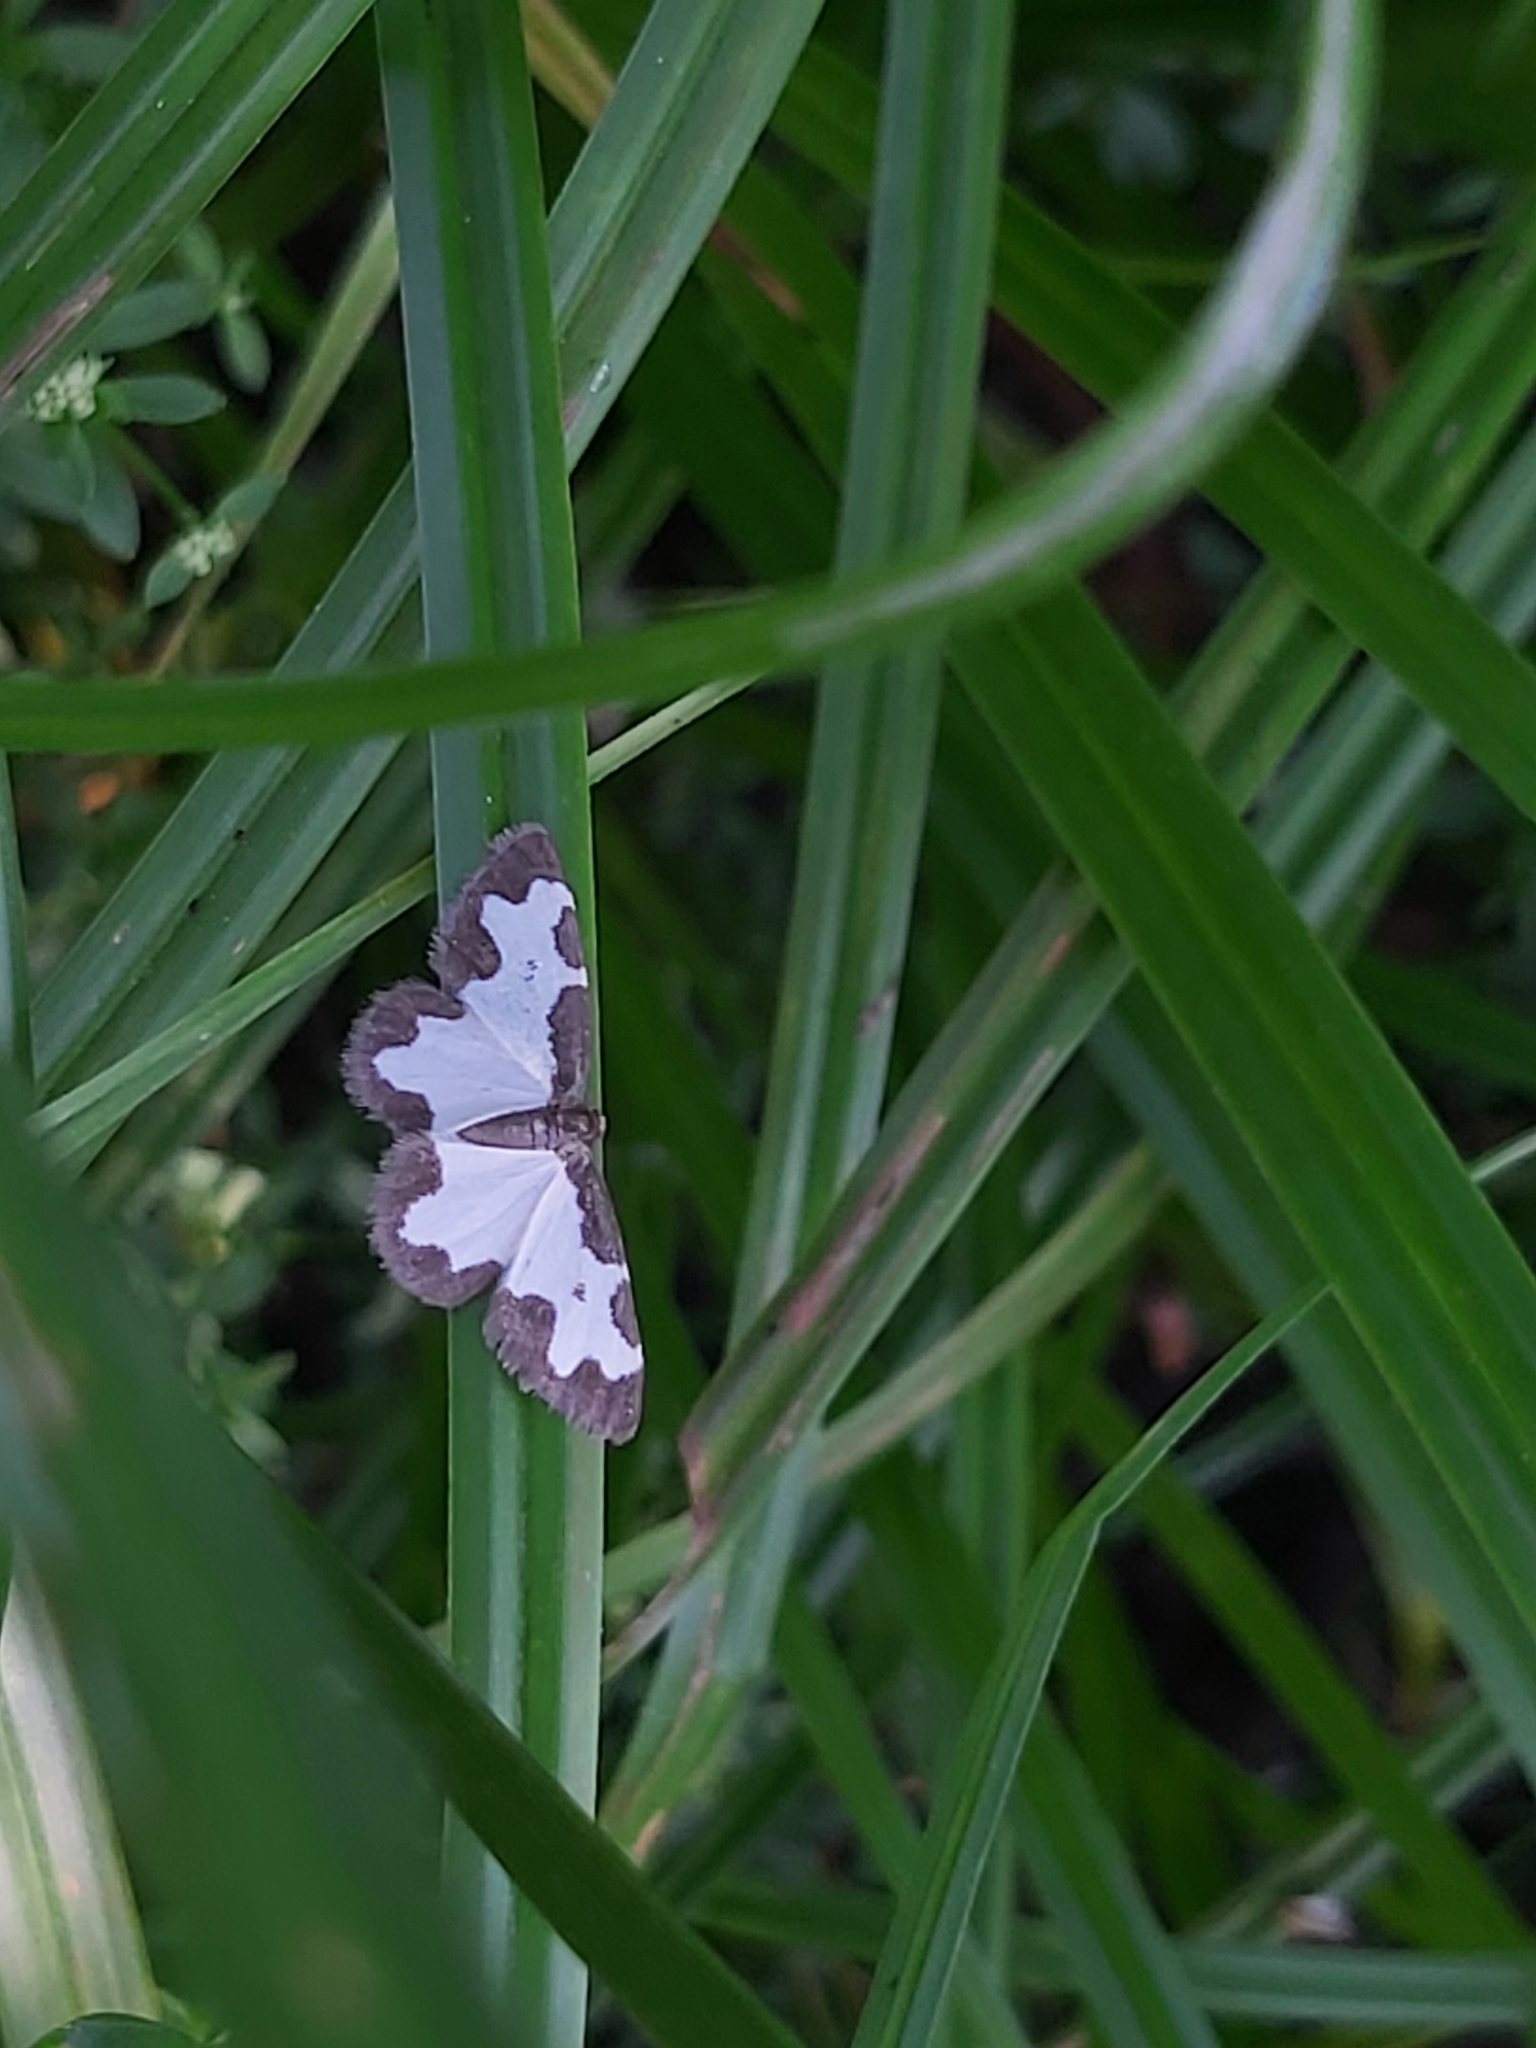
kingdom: Animalia
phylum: Arthropoda
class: Insecta
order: Lepidoptera
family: Geometridae
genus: Lomaspilis
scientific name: Lomaspilis marginata
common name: Clouded border
